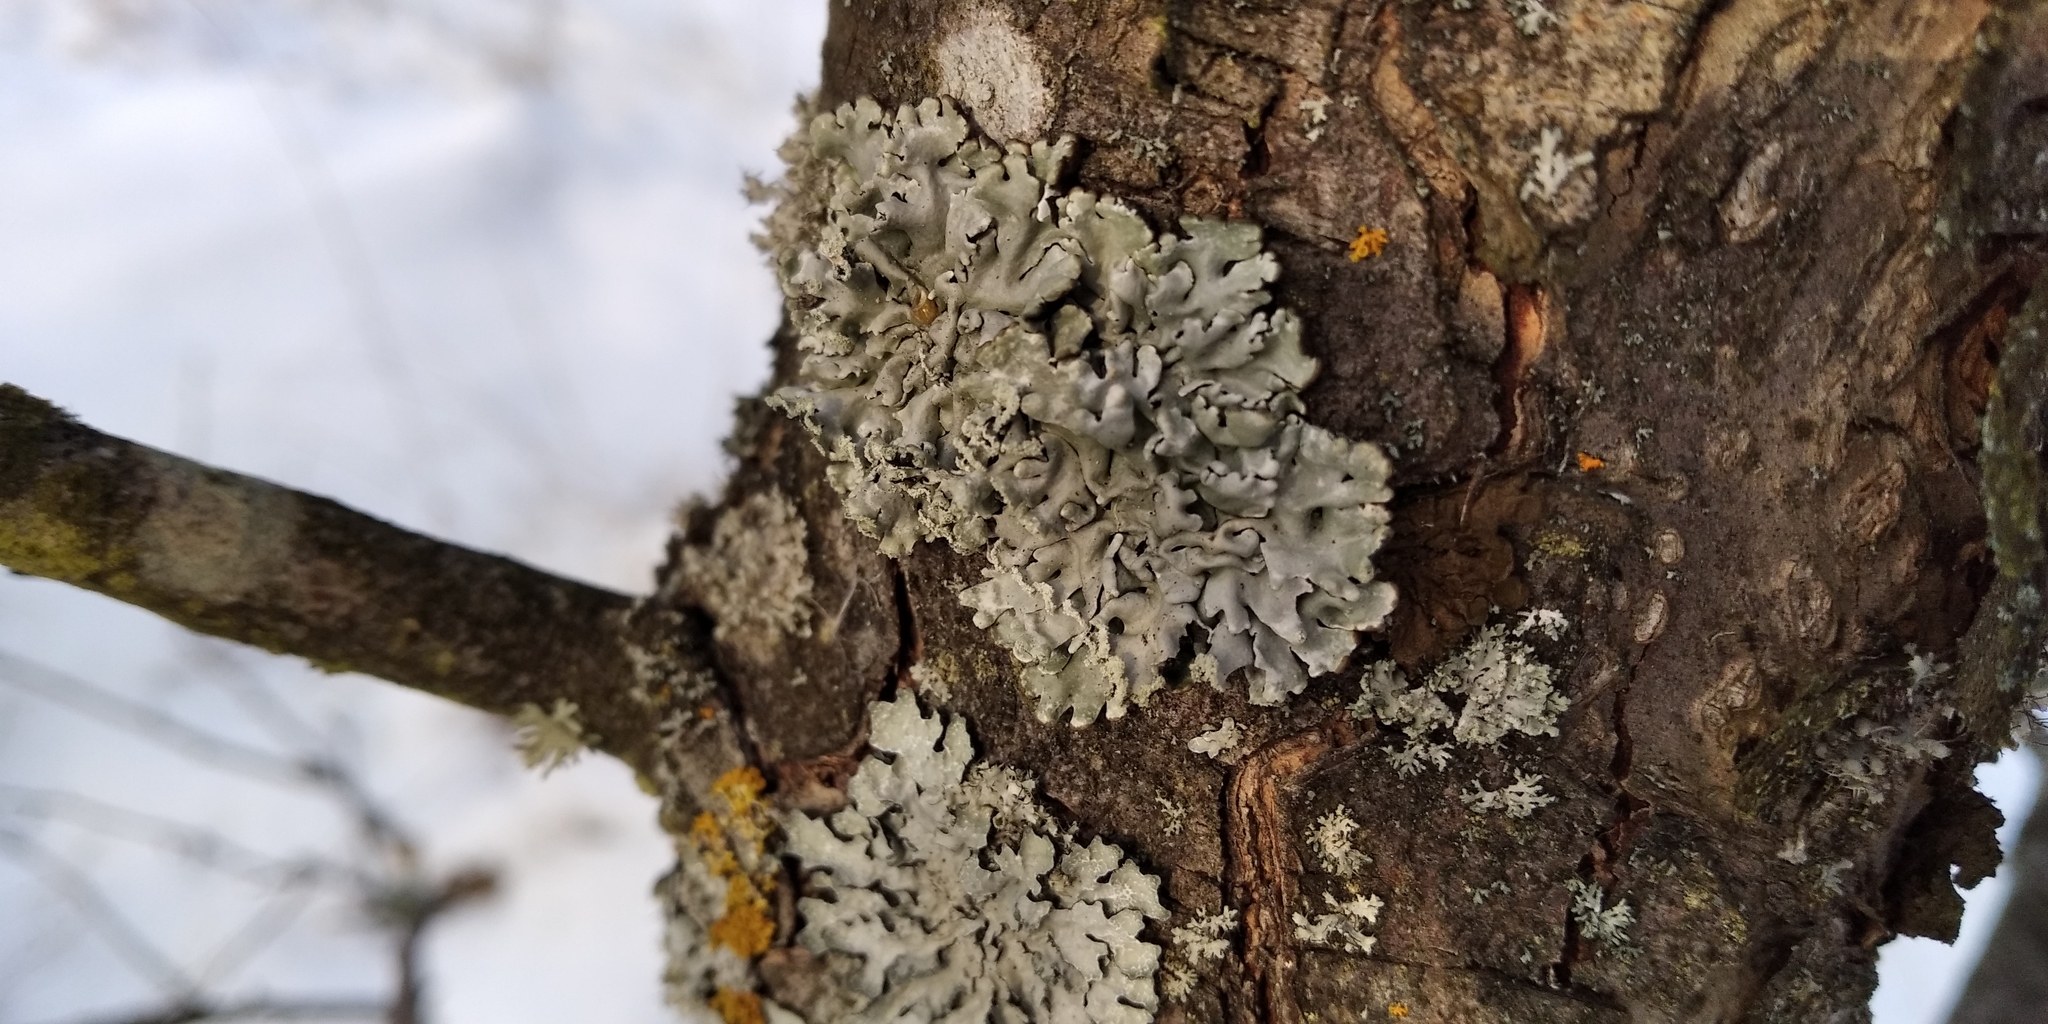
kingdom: Fungi
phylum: Ascomycota
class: Lecanoromycetes
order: Lecanorales
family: Parmeliaceae
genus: Hypogymnia
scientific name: Hypogymnia physodes
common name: Dark crottle
